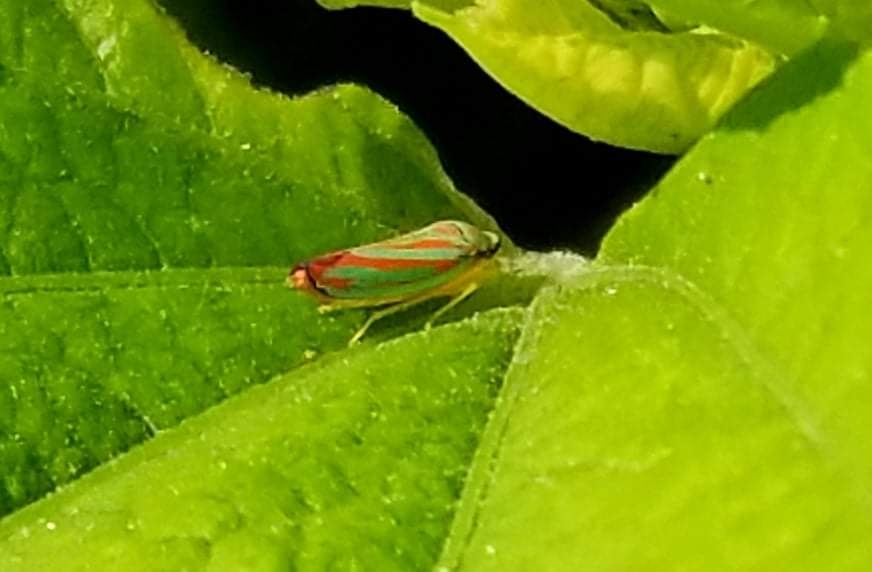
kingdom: Animalia
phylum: Arthropoda
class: Insecta
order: Hemiptera
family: Cicadellidae
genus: Graphocephala
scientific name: Graphocephala fennahi
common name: Rhododendron leafhopper
